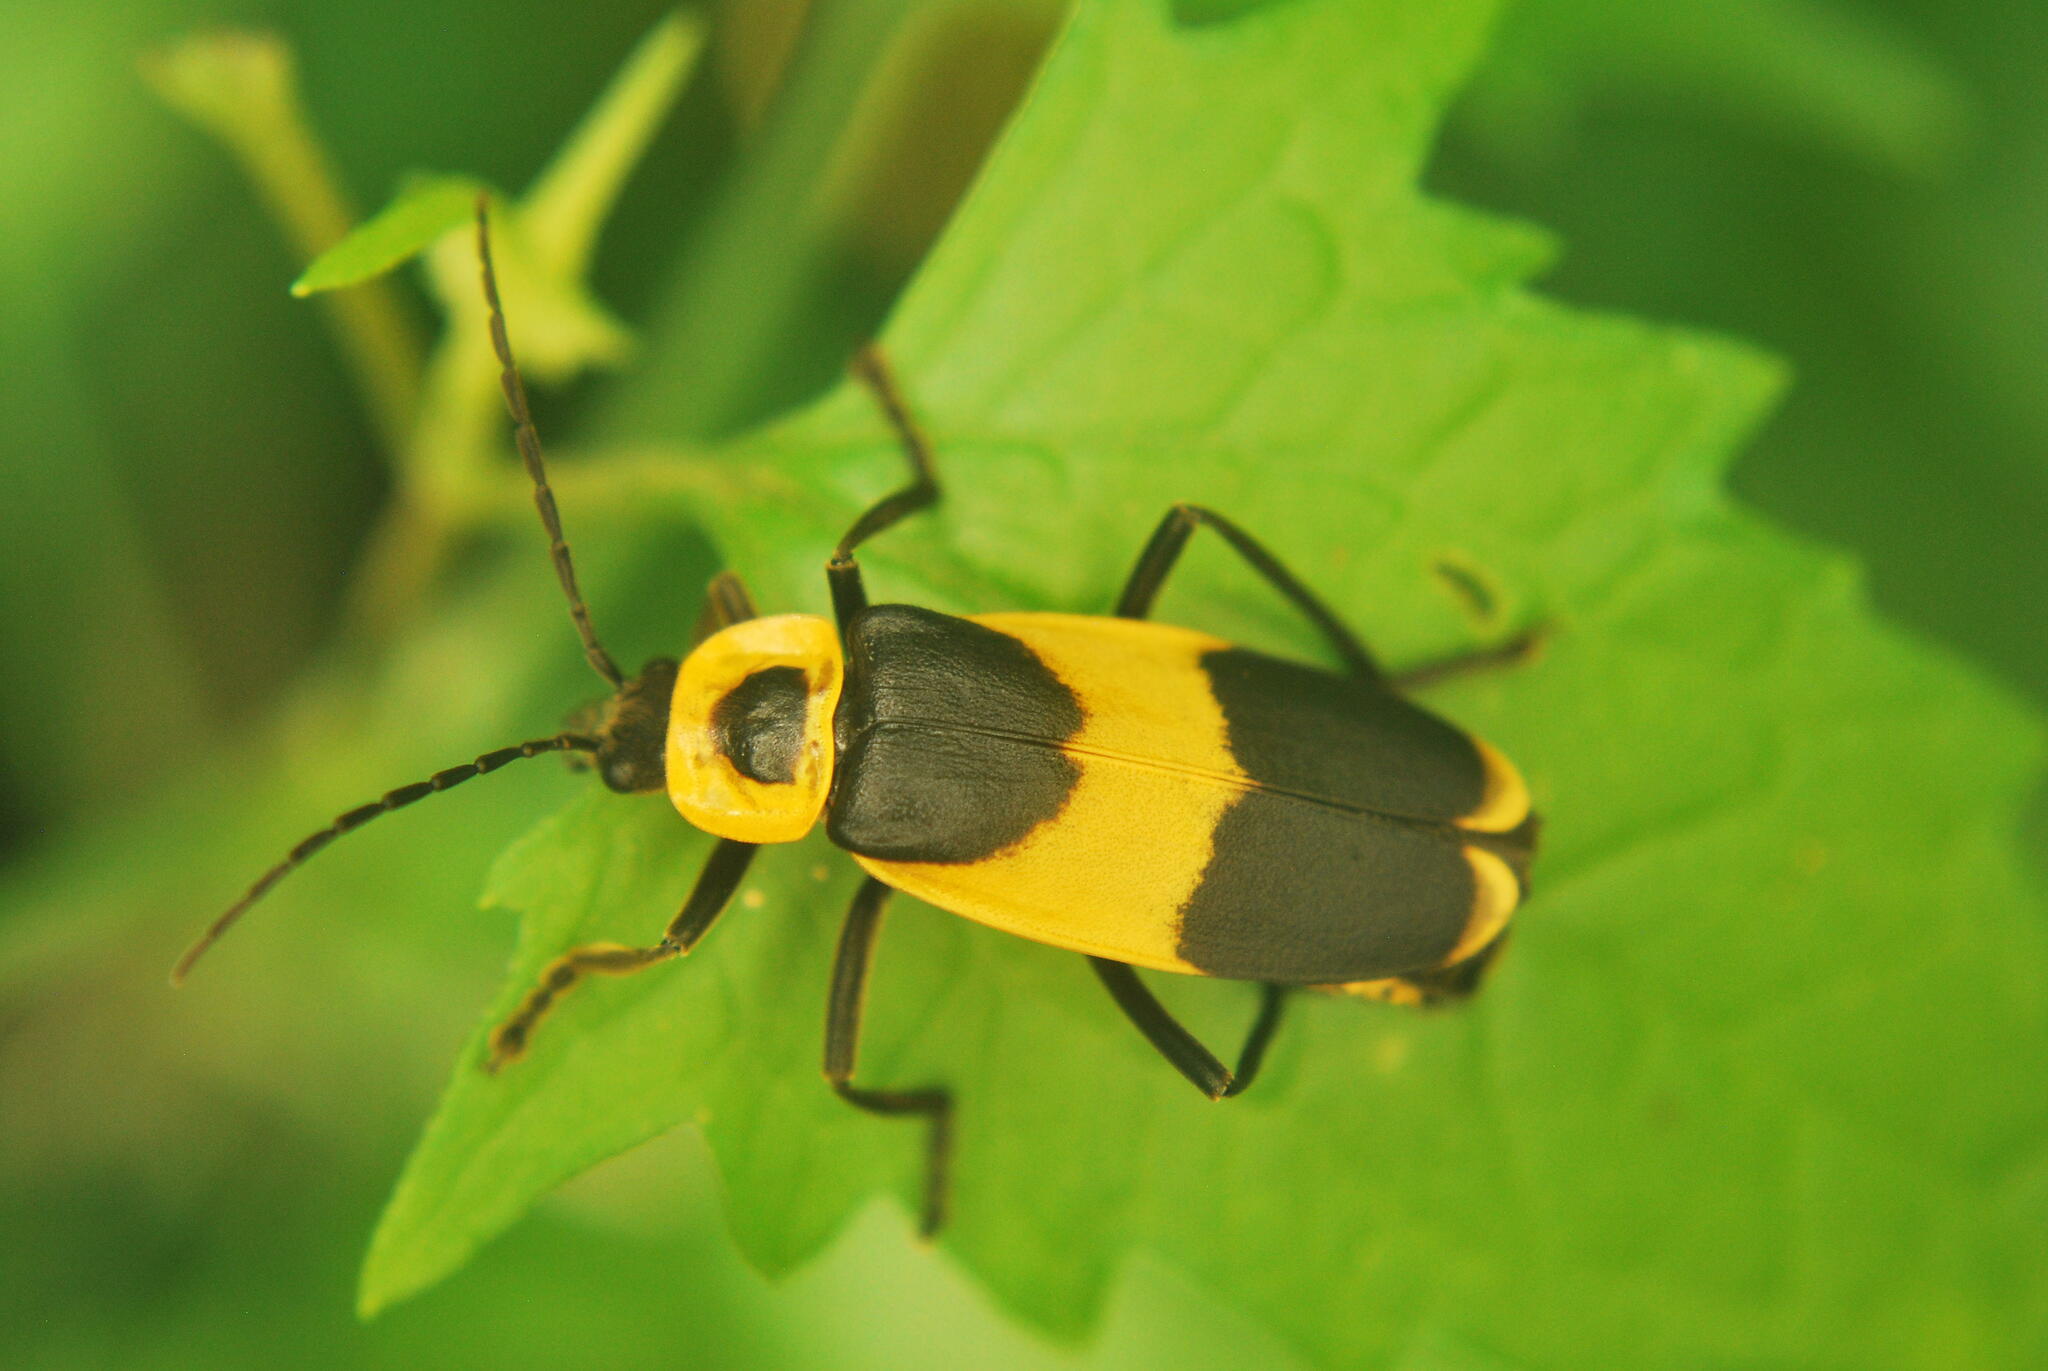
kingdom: Animalia
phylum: Arthropoda
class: Insecta
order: Coleoptera
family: Cantharidae
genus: Chauliognathus
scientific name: Chauliognathus
